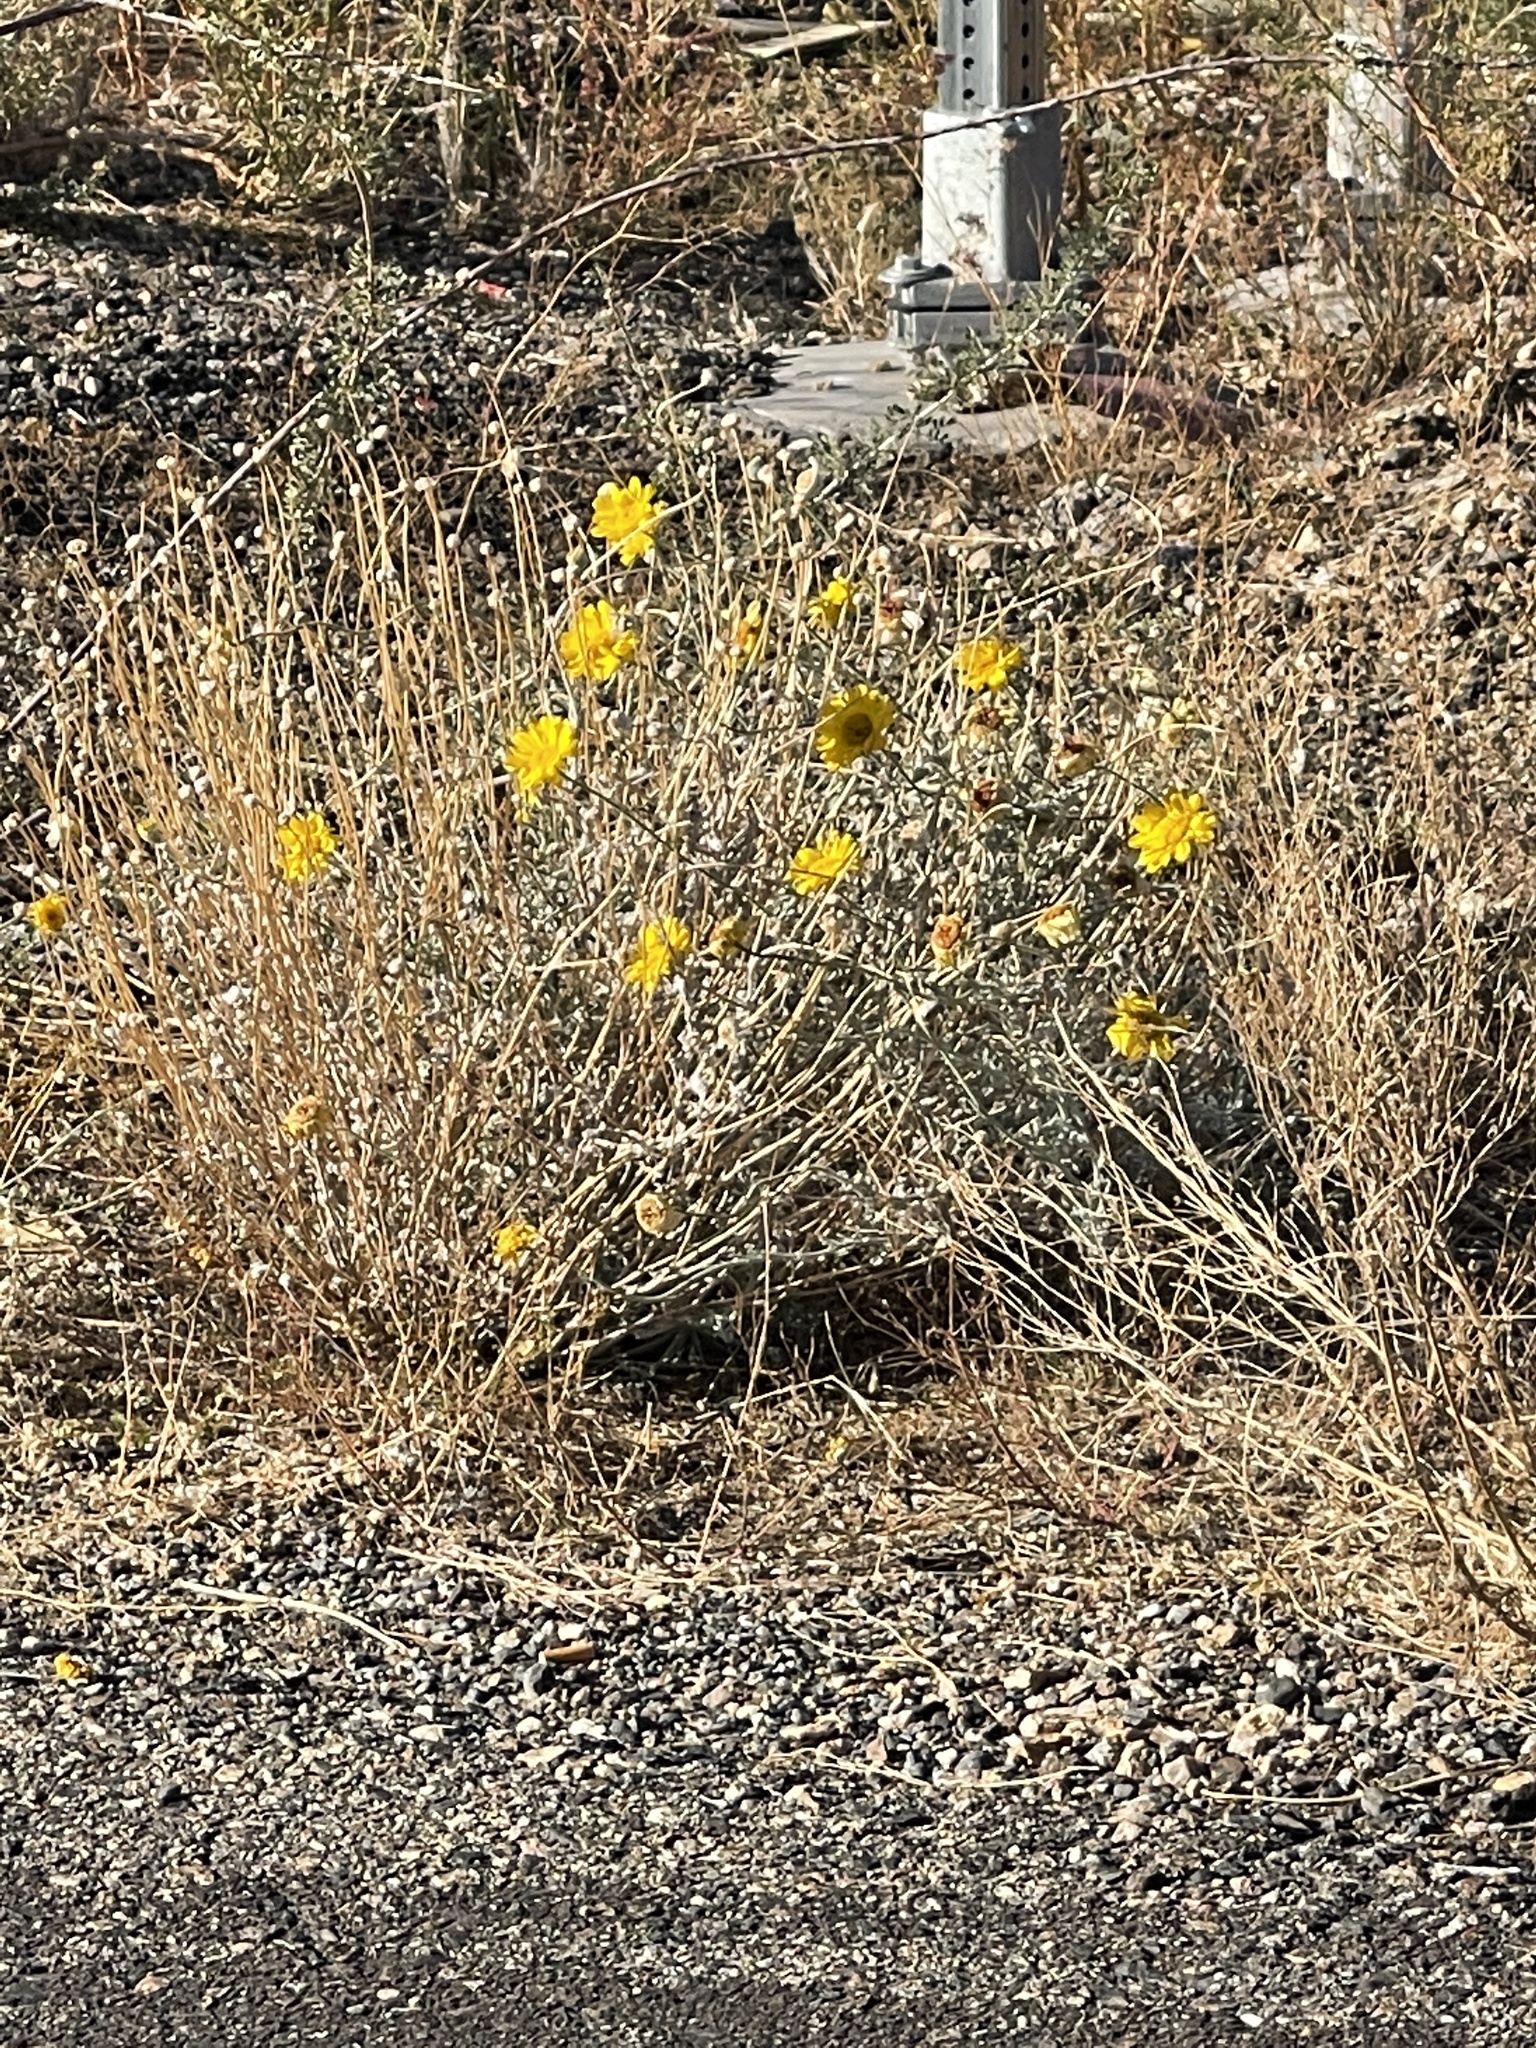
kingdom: Plantae
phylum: Tracheophyta
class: Magnoliopsida
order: Asterales
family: Asteraceae
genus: Baileya
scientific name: Baileya multiradiata
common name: Desert-marigold
